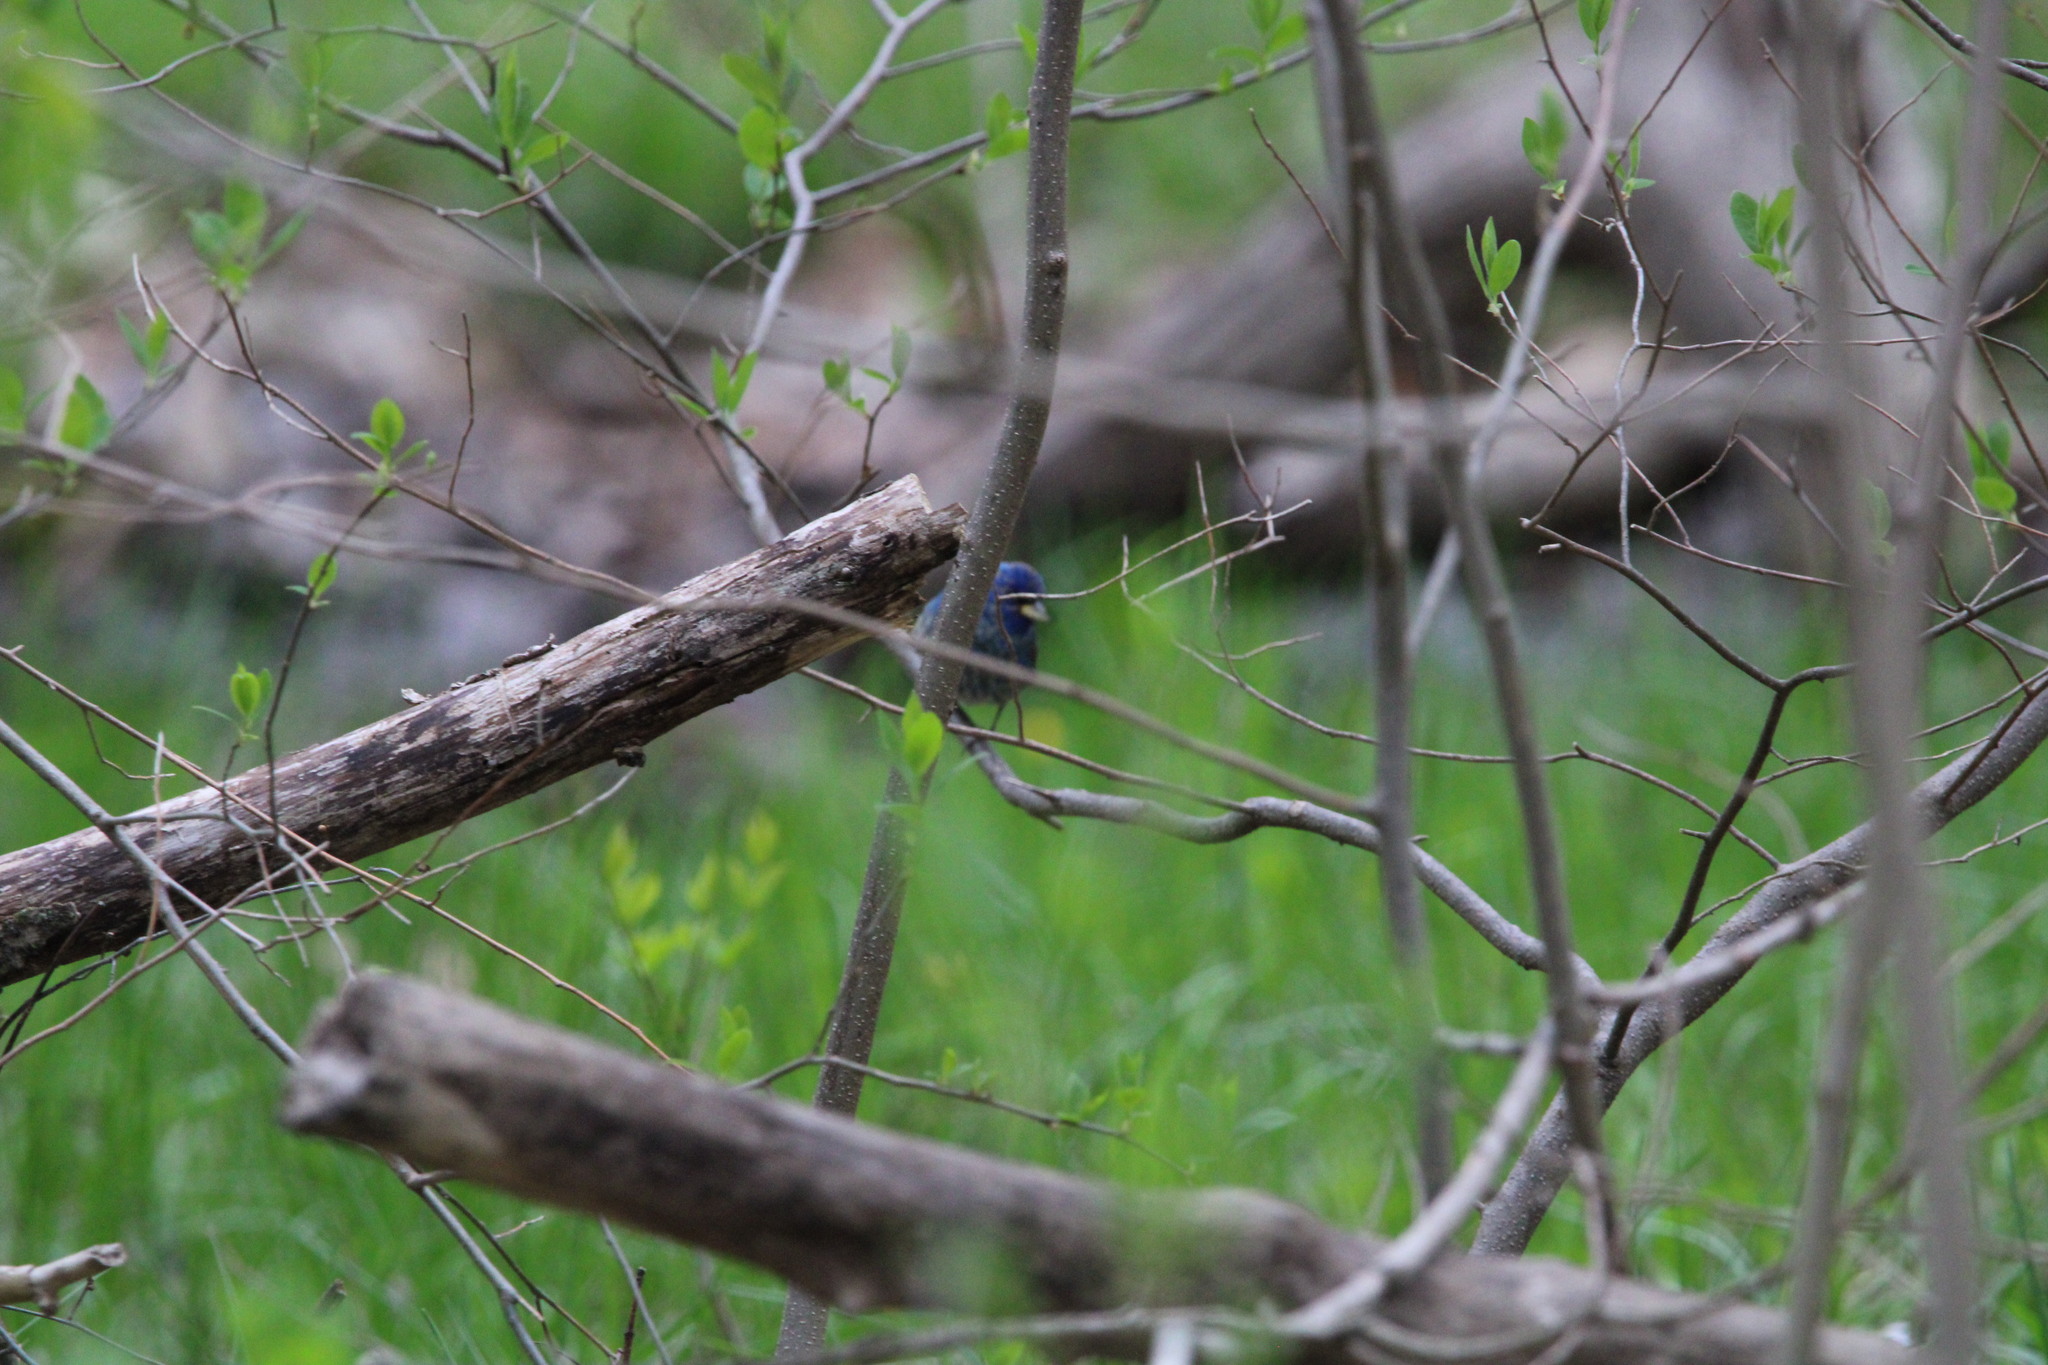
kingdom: Animalia
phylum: Chordata
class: Aves
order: Passeriformes
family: Cardinalidae
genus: Passerina
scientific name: Passerina cyanea
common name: Indigo bunting
